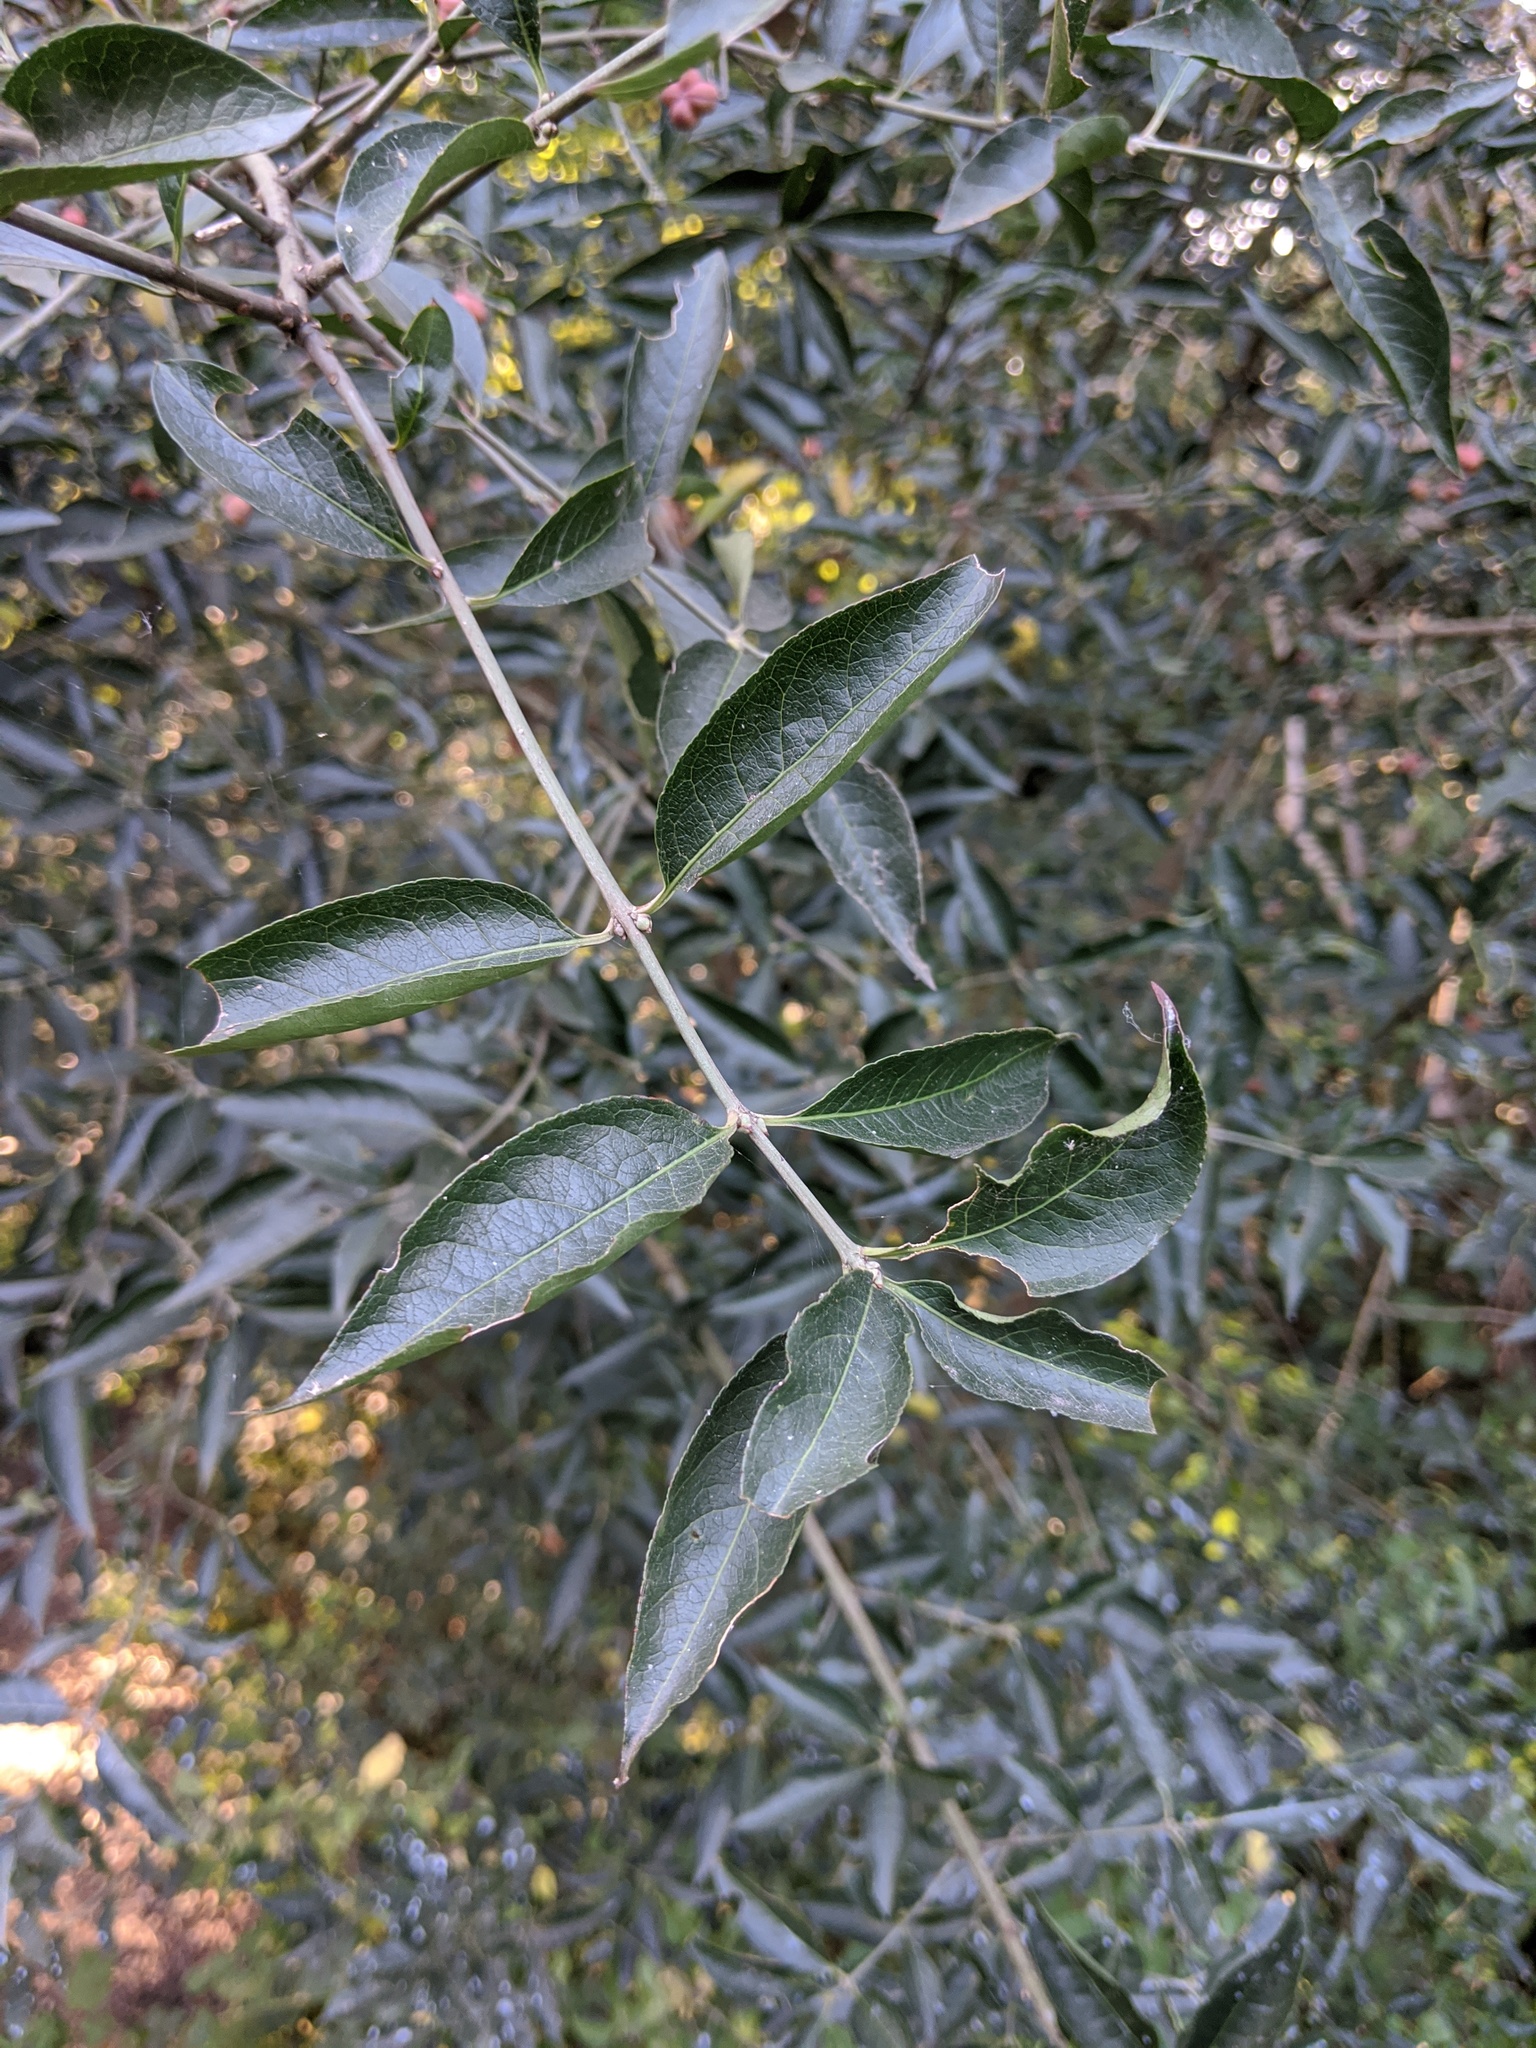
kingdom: Plantae
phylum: Tracheophyta
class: Magnoliopsida
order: Celastrales
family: Celastraceae
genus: Euonymus
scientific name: Euonymus europaeus
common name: Spindle
